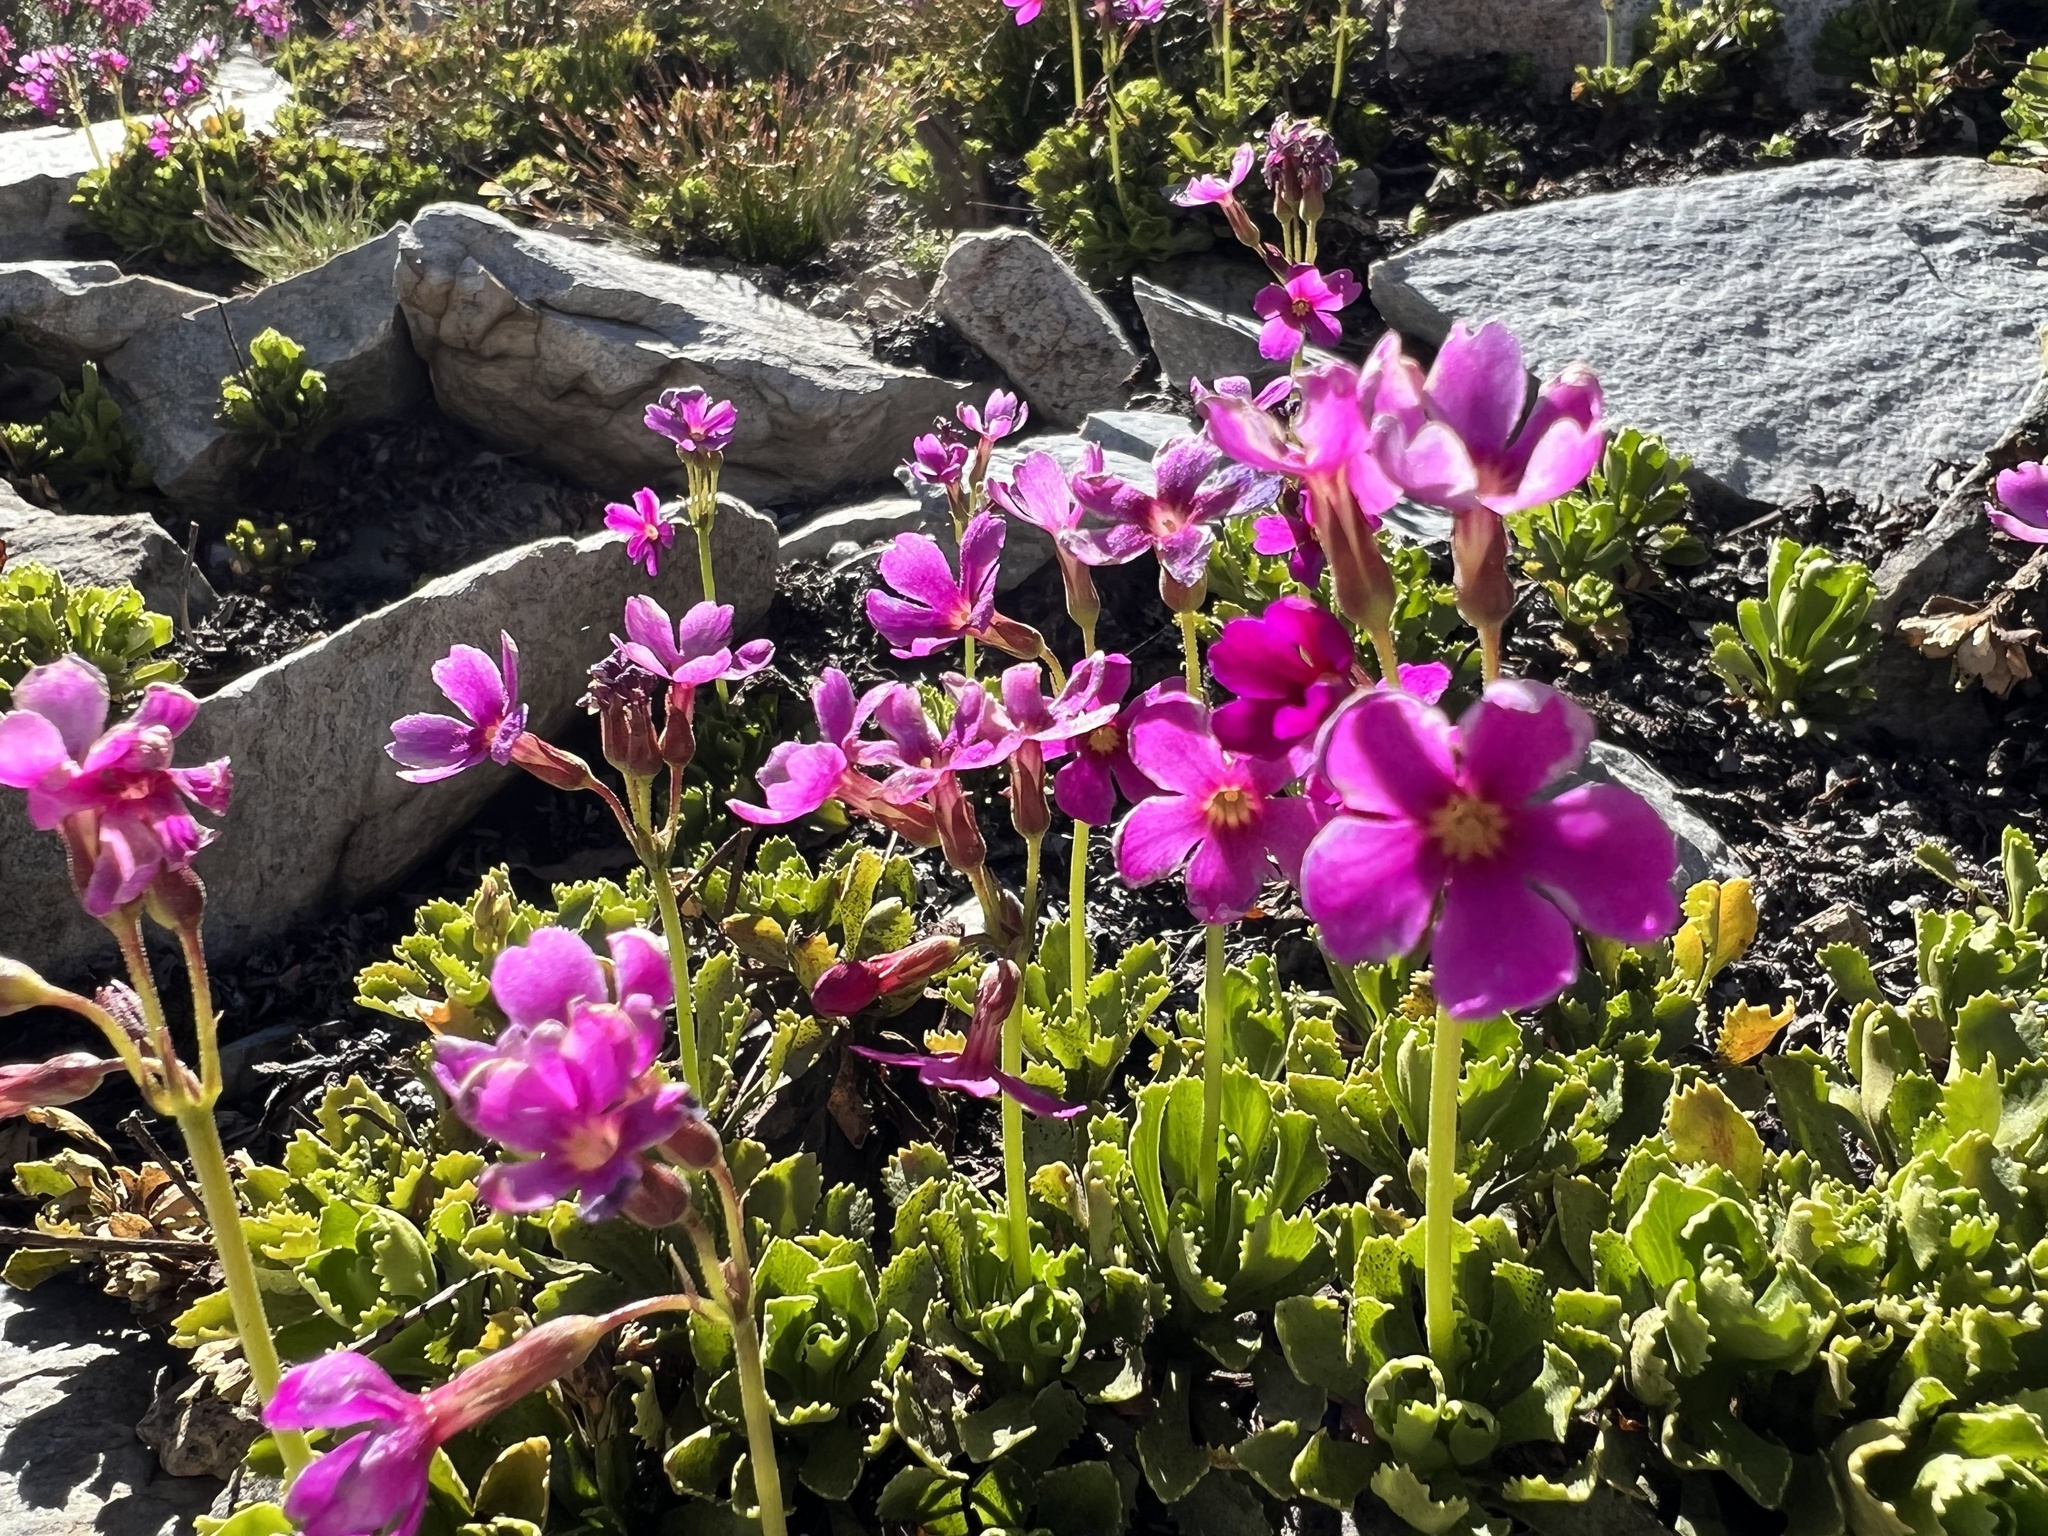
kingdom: Plantae
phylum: Tracheophyta
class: Magnoliopsida
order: Ericales
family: Primulaceae
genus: Primula
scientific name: Primula suffrutescens
